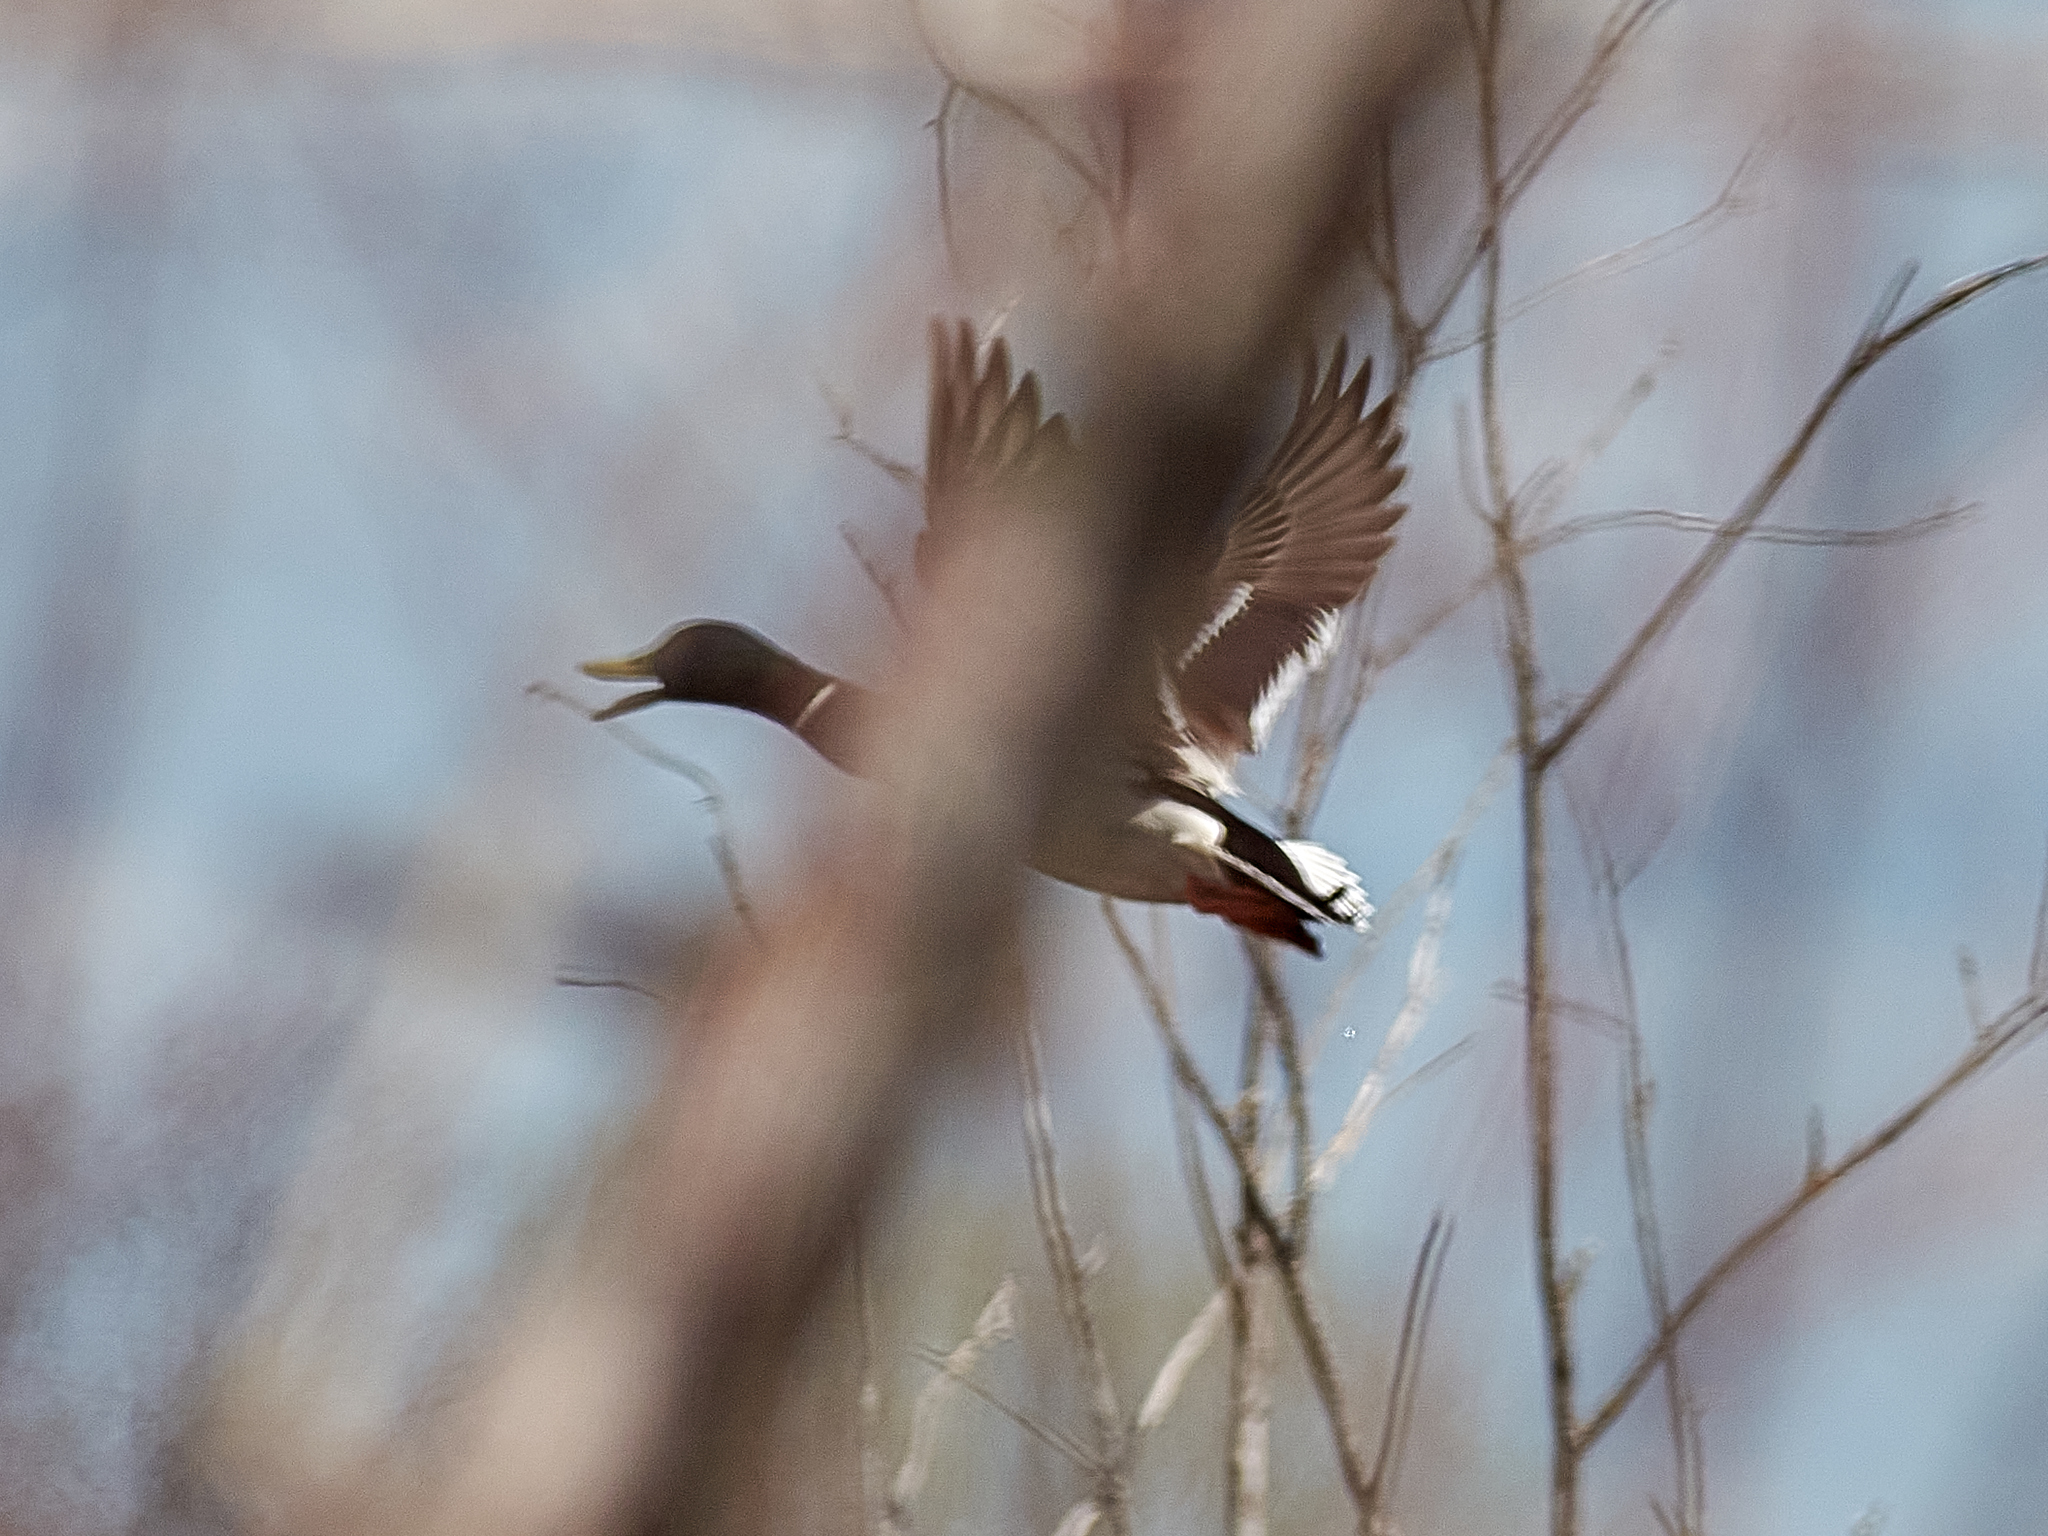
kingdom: Animalia
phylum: Chordata
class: Aves
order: Anseriformes
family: Anatidae
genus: Anas
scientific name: Anas platyrhynchos
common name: Mallard
